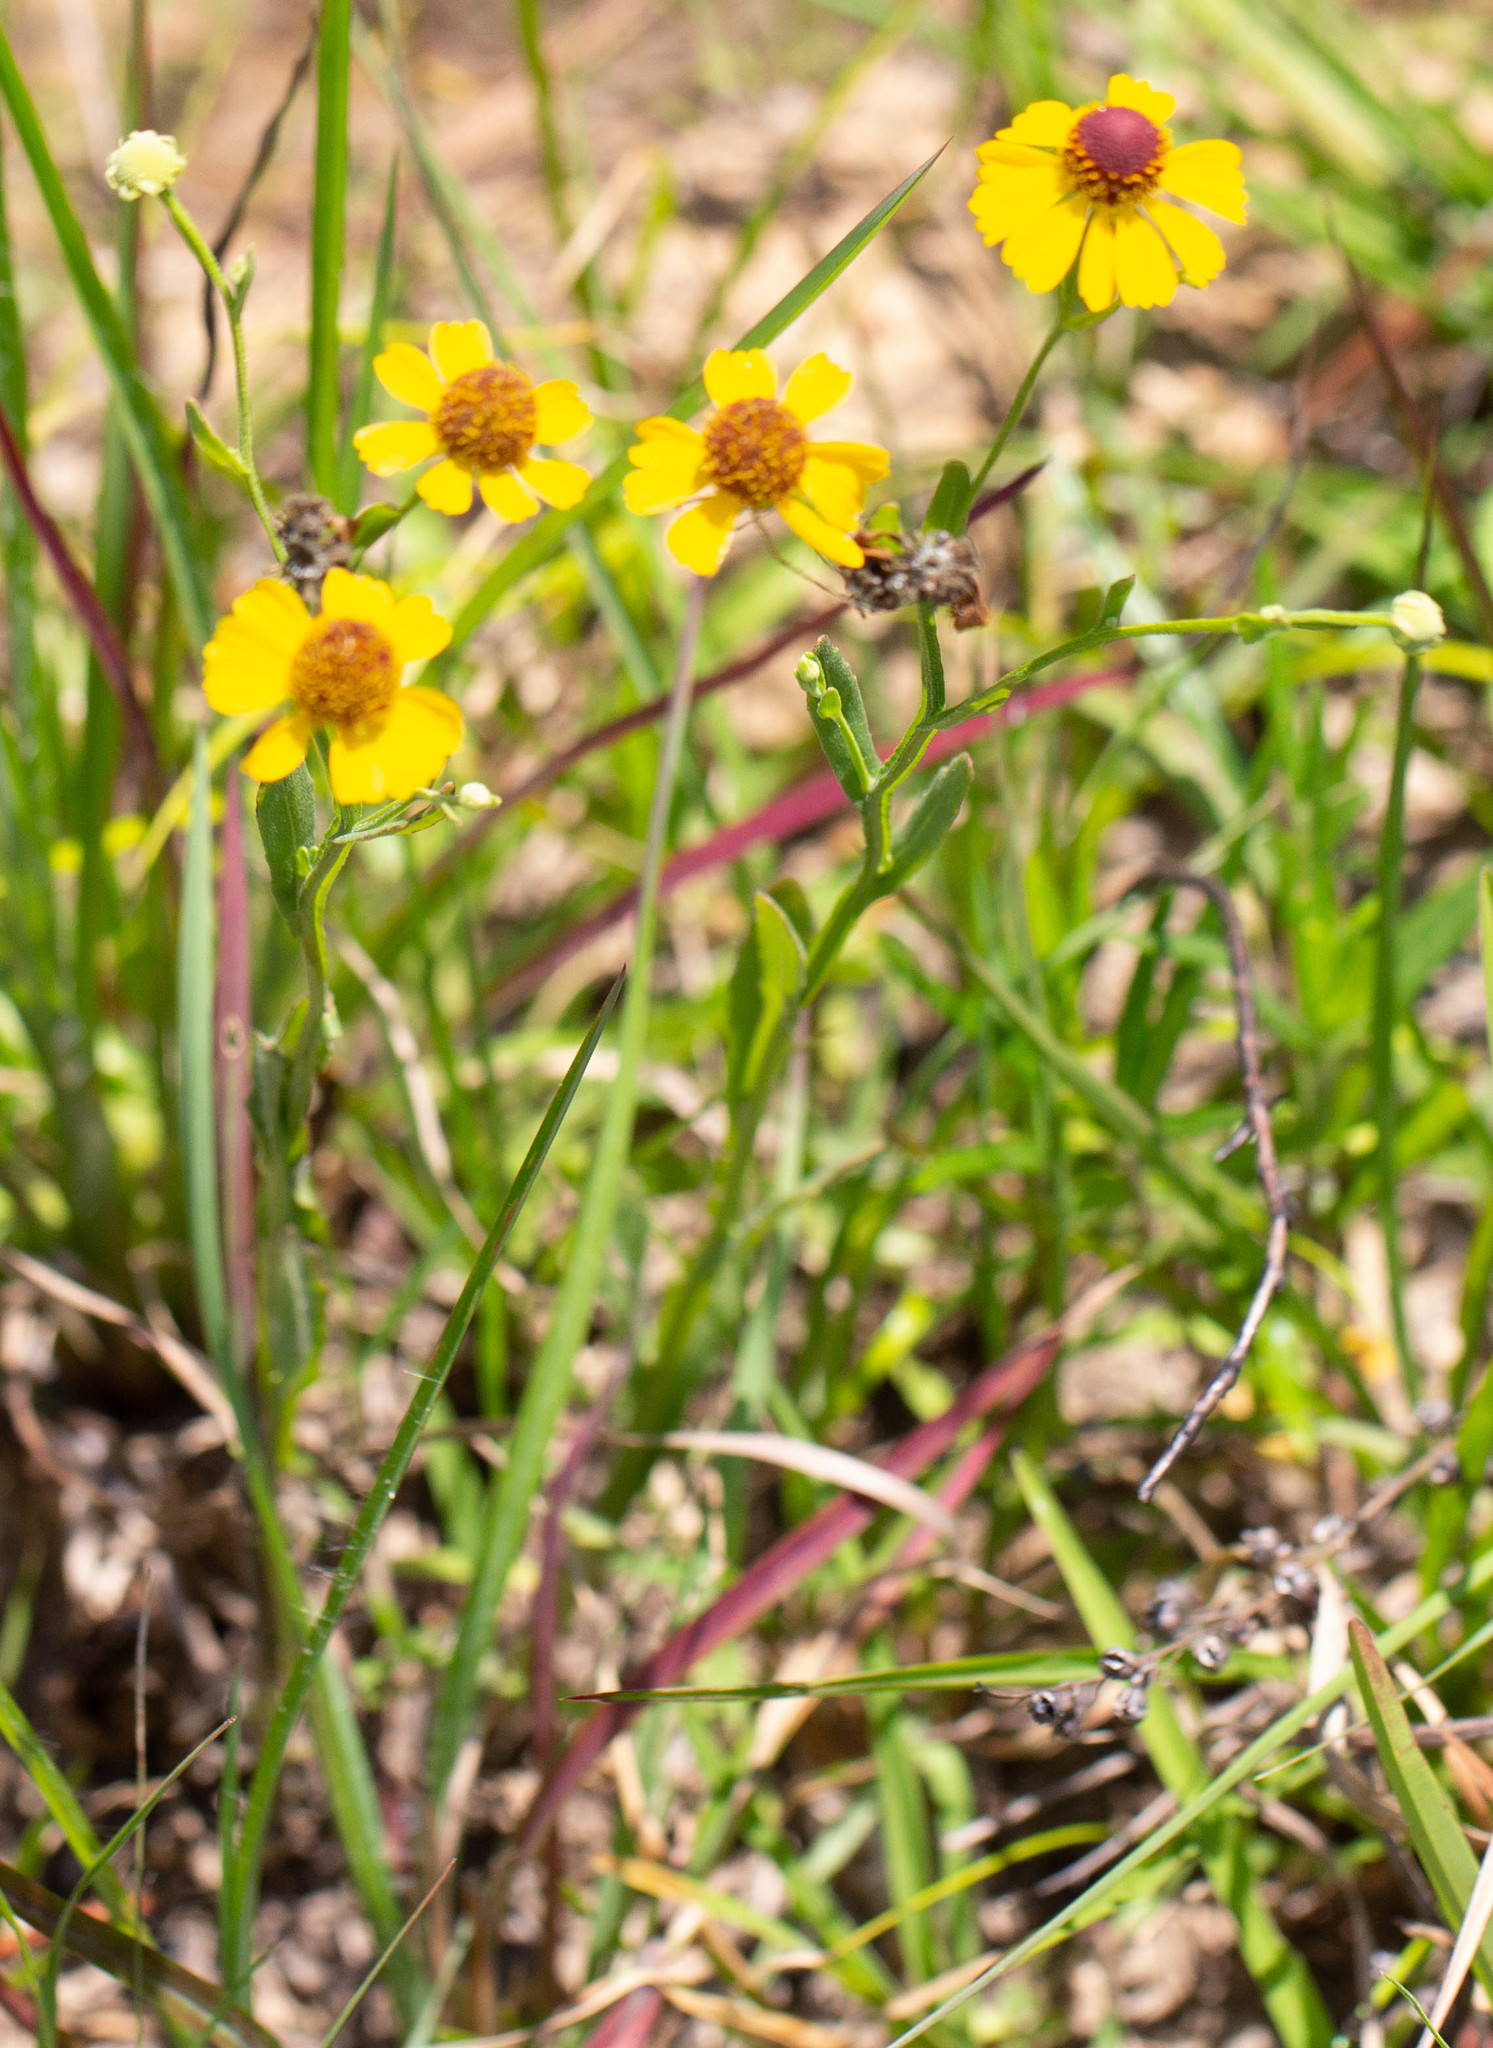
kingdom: Plantae
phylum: Tracheophyta
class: Magnoliopsida
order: Asterales
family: Asteraceae
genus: Helenium
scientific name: Helenium flexuosum
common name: Naked-flowered sneezeweed
